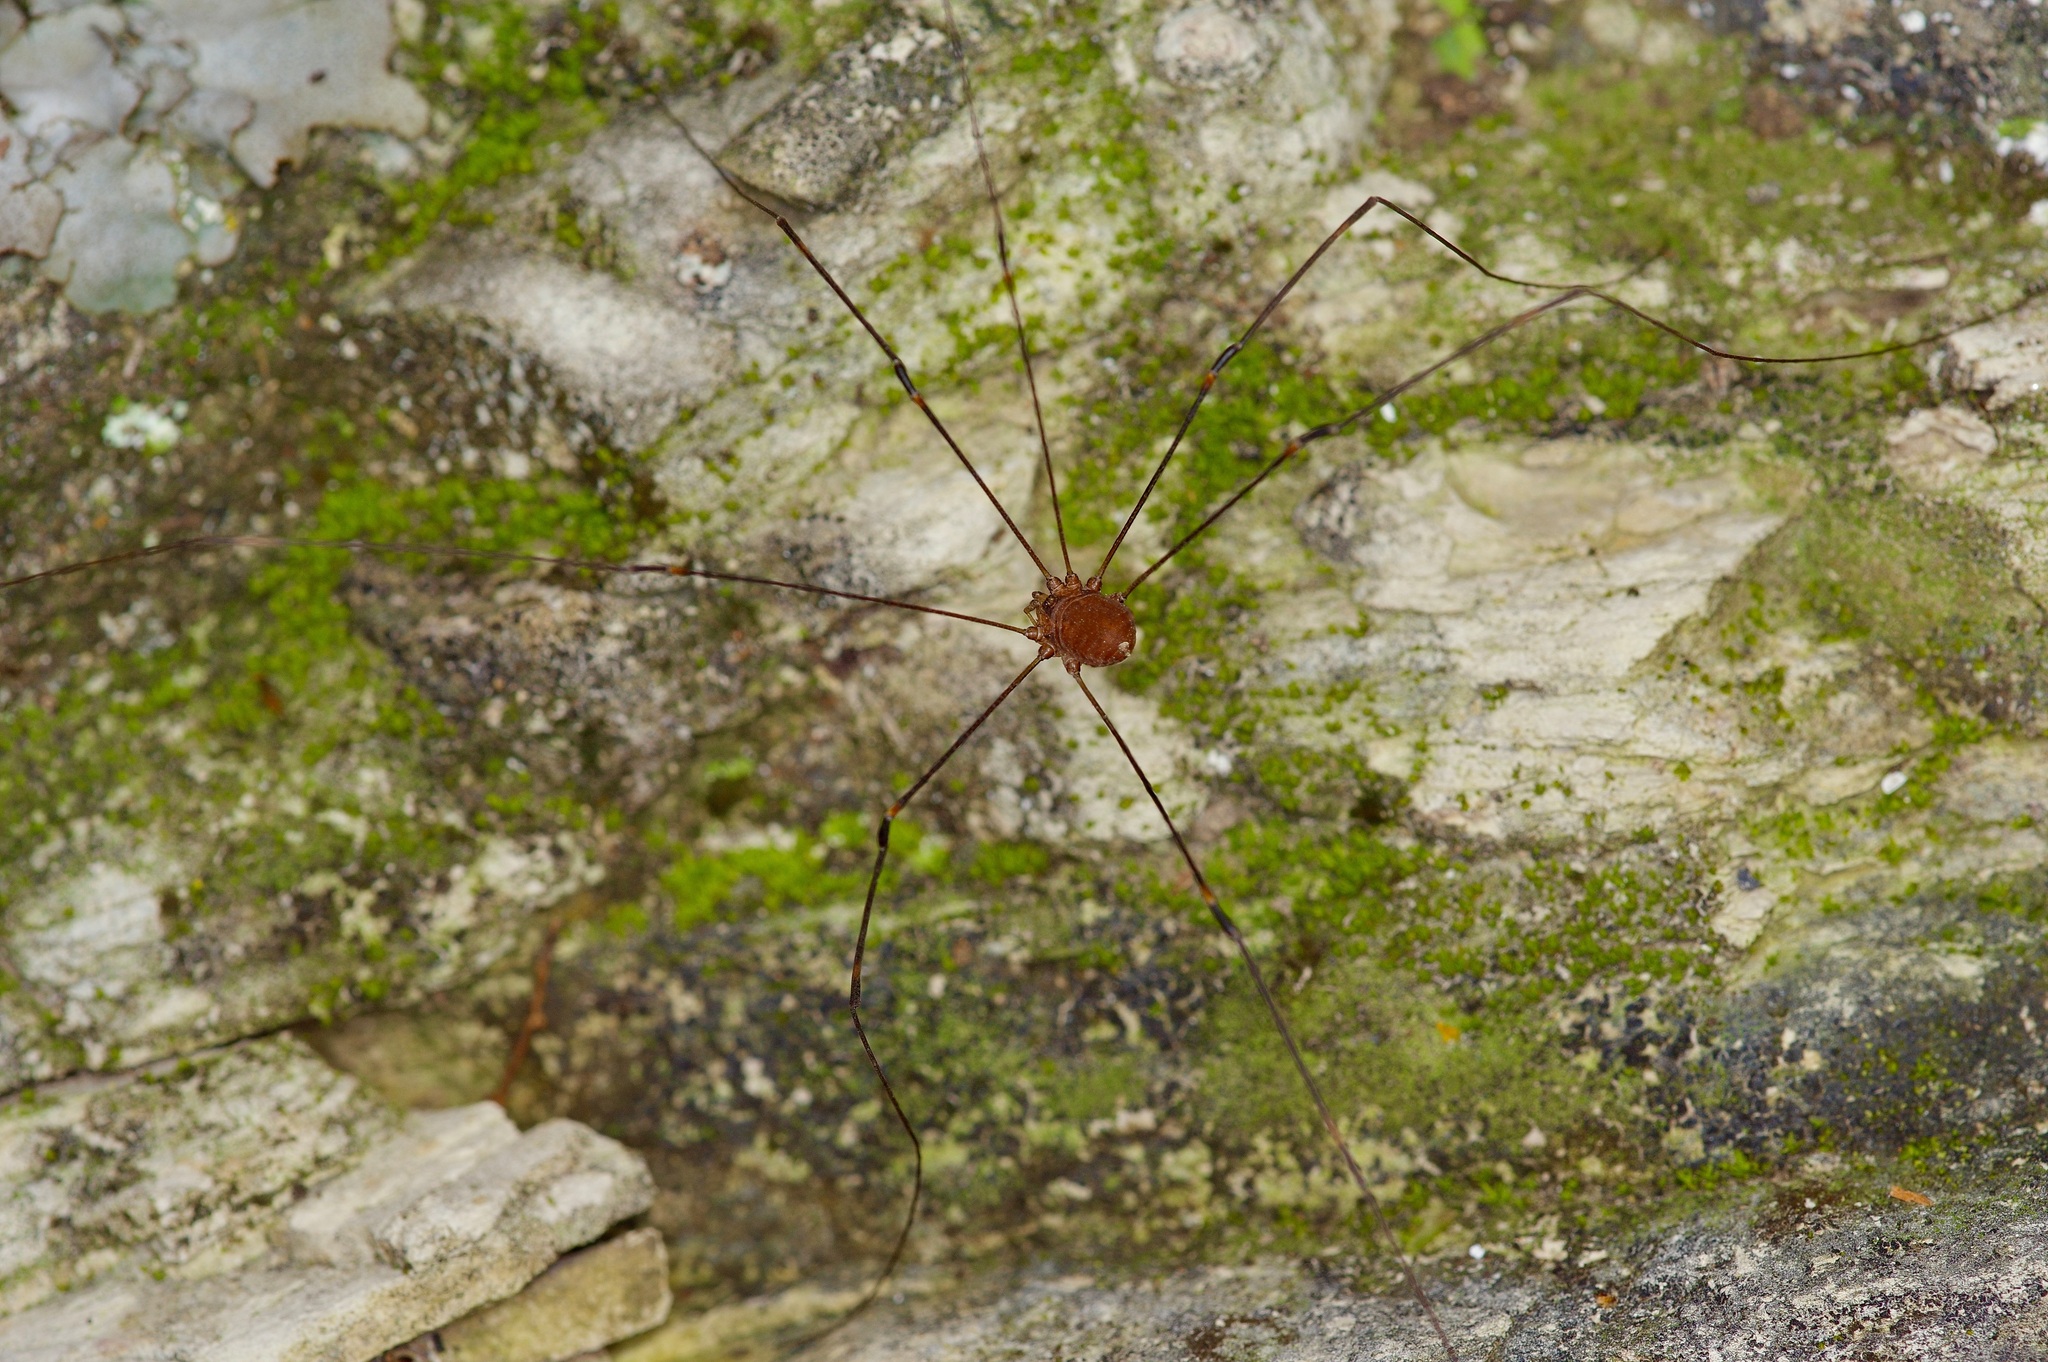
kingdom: Animalia
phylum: Arthropoda
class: Arachnida
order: Opiliones
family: Sclerosomatidae
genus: Leiobunum
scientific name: Leiobunum townsendi
